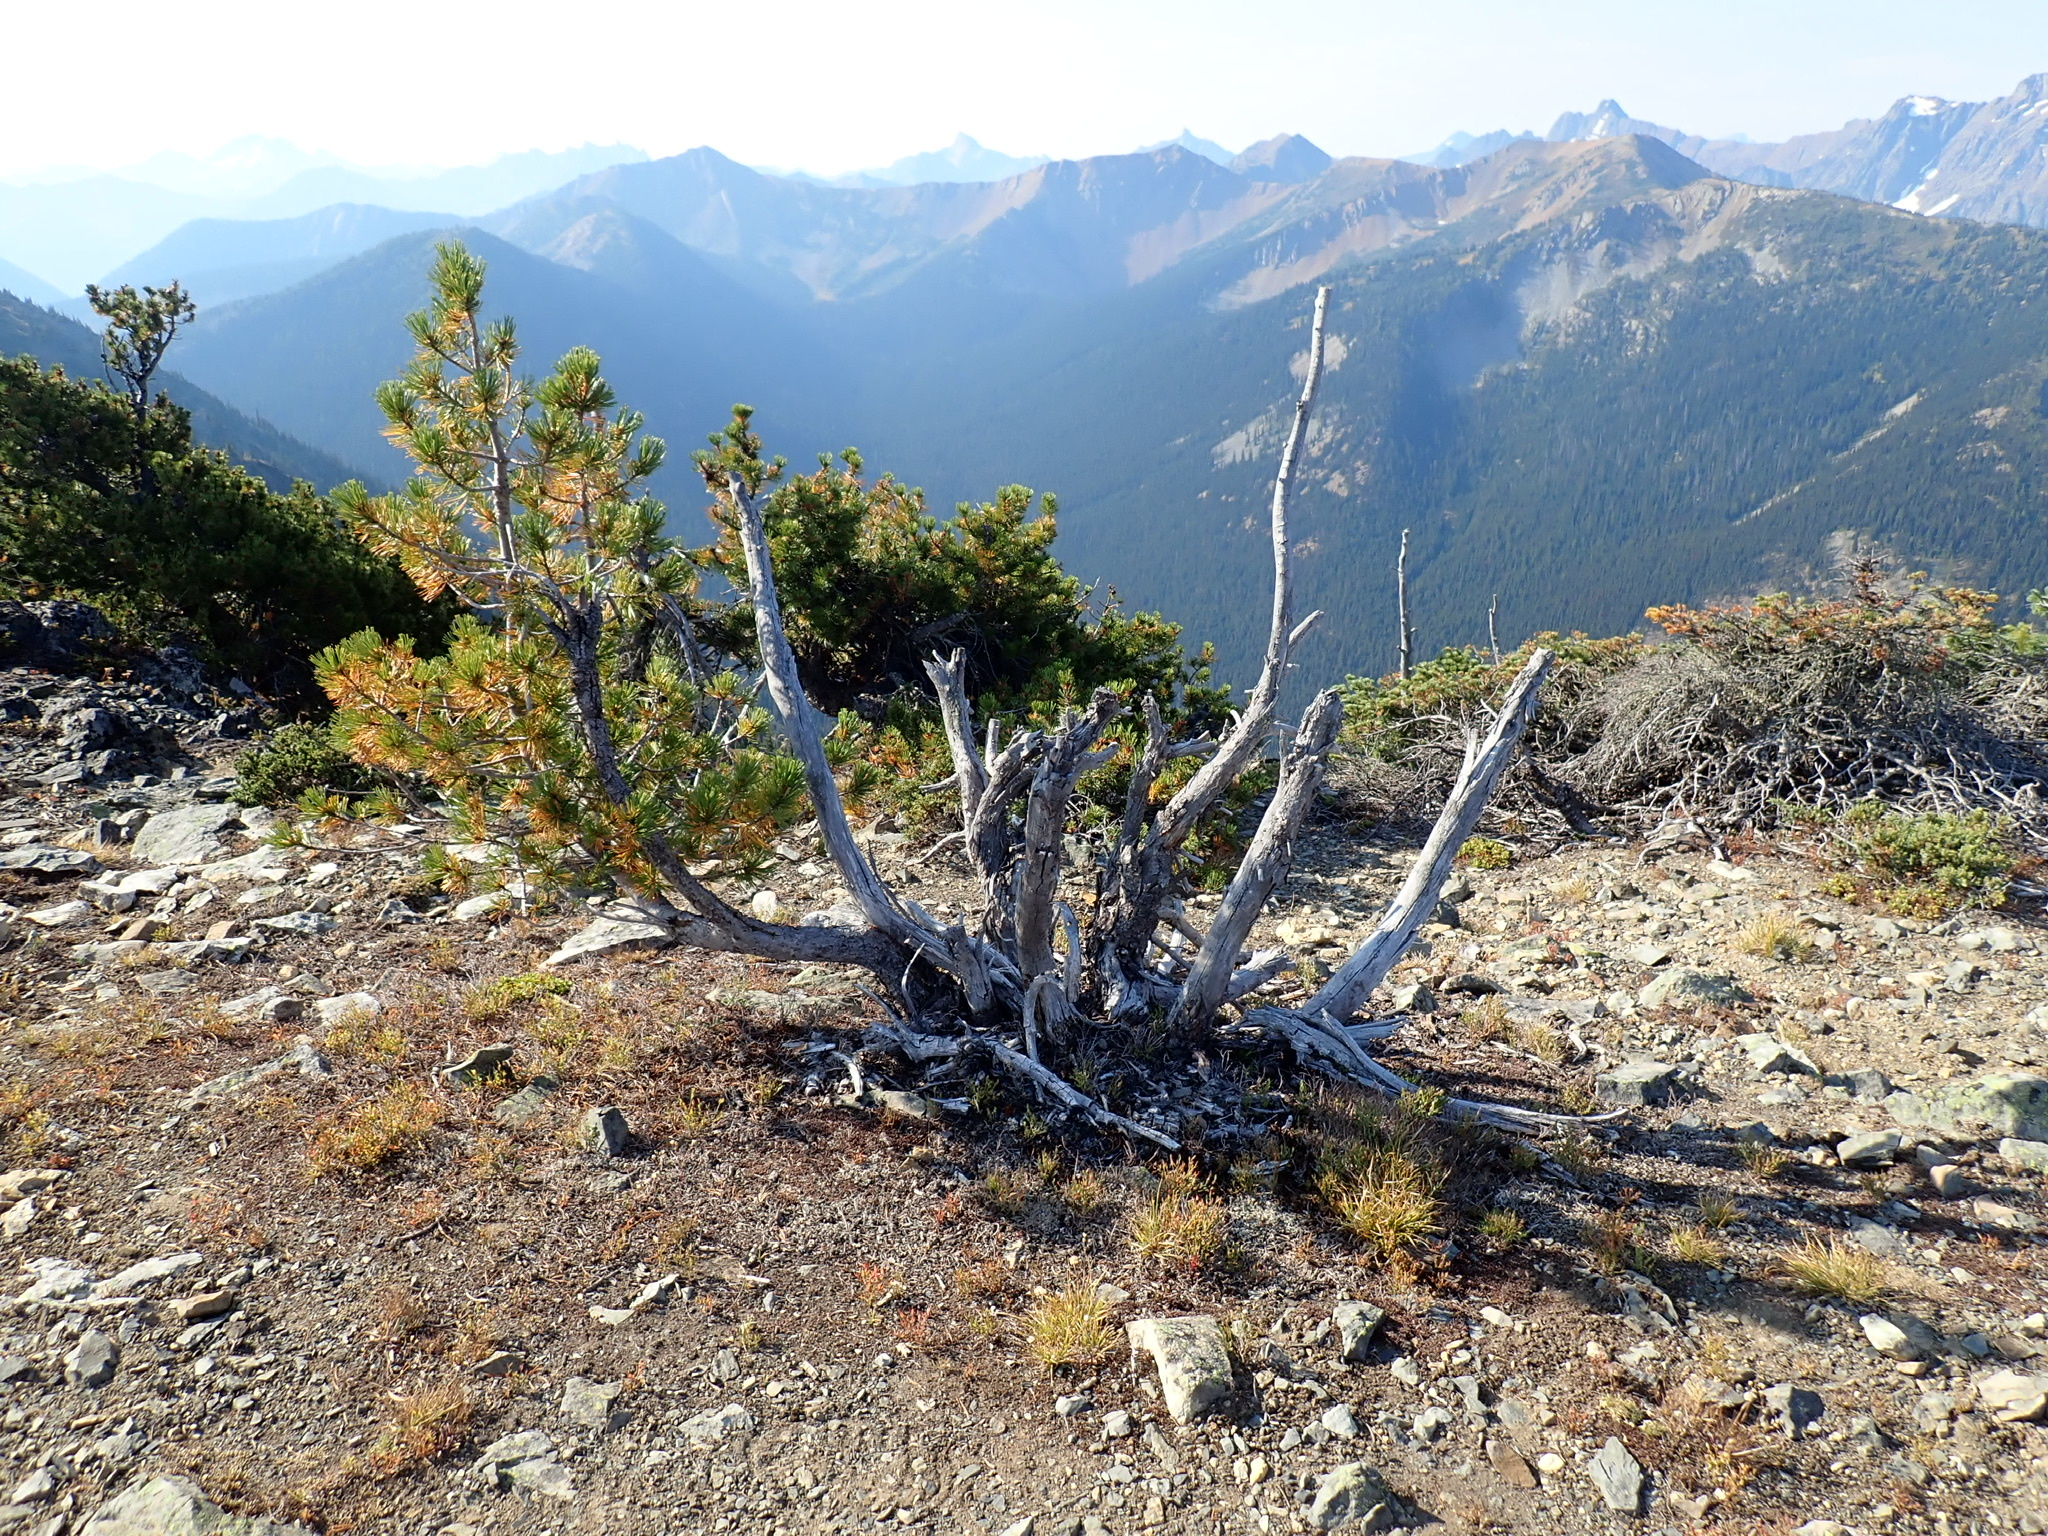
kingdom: Plantae
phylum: Tracheophyta
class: Pinopsida
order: Pinales
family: Pinaceae
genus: Pinus
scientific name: Pinus albicaulis
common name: Whitebark pine
